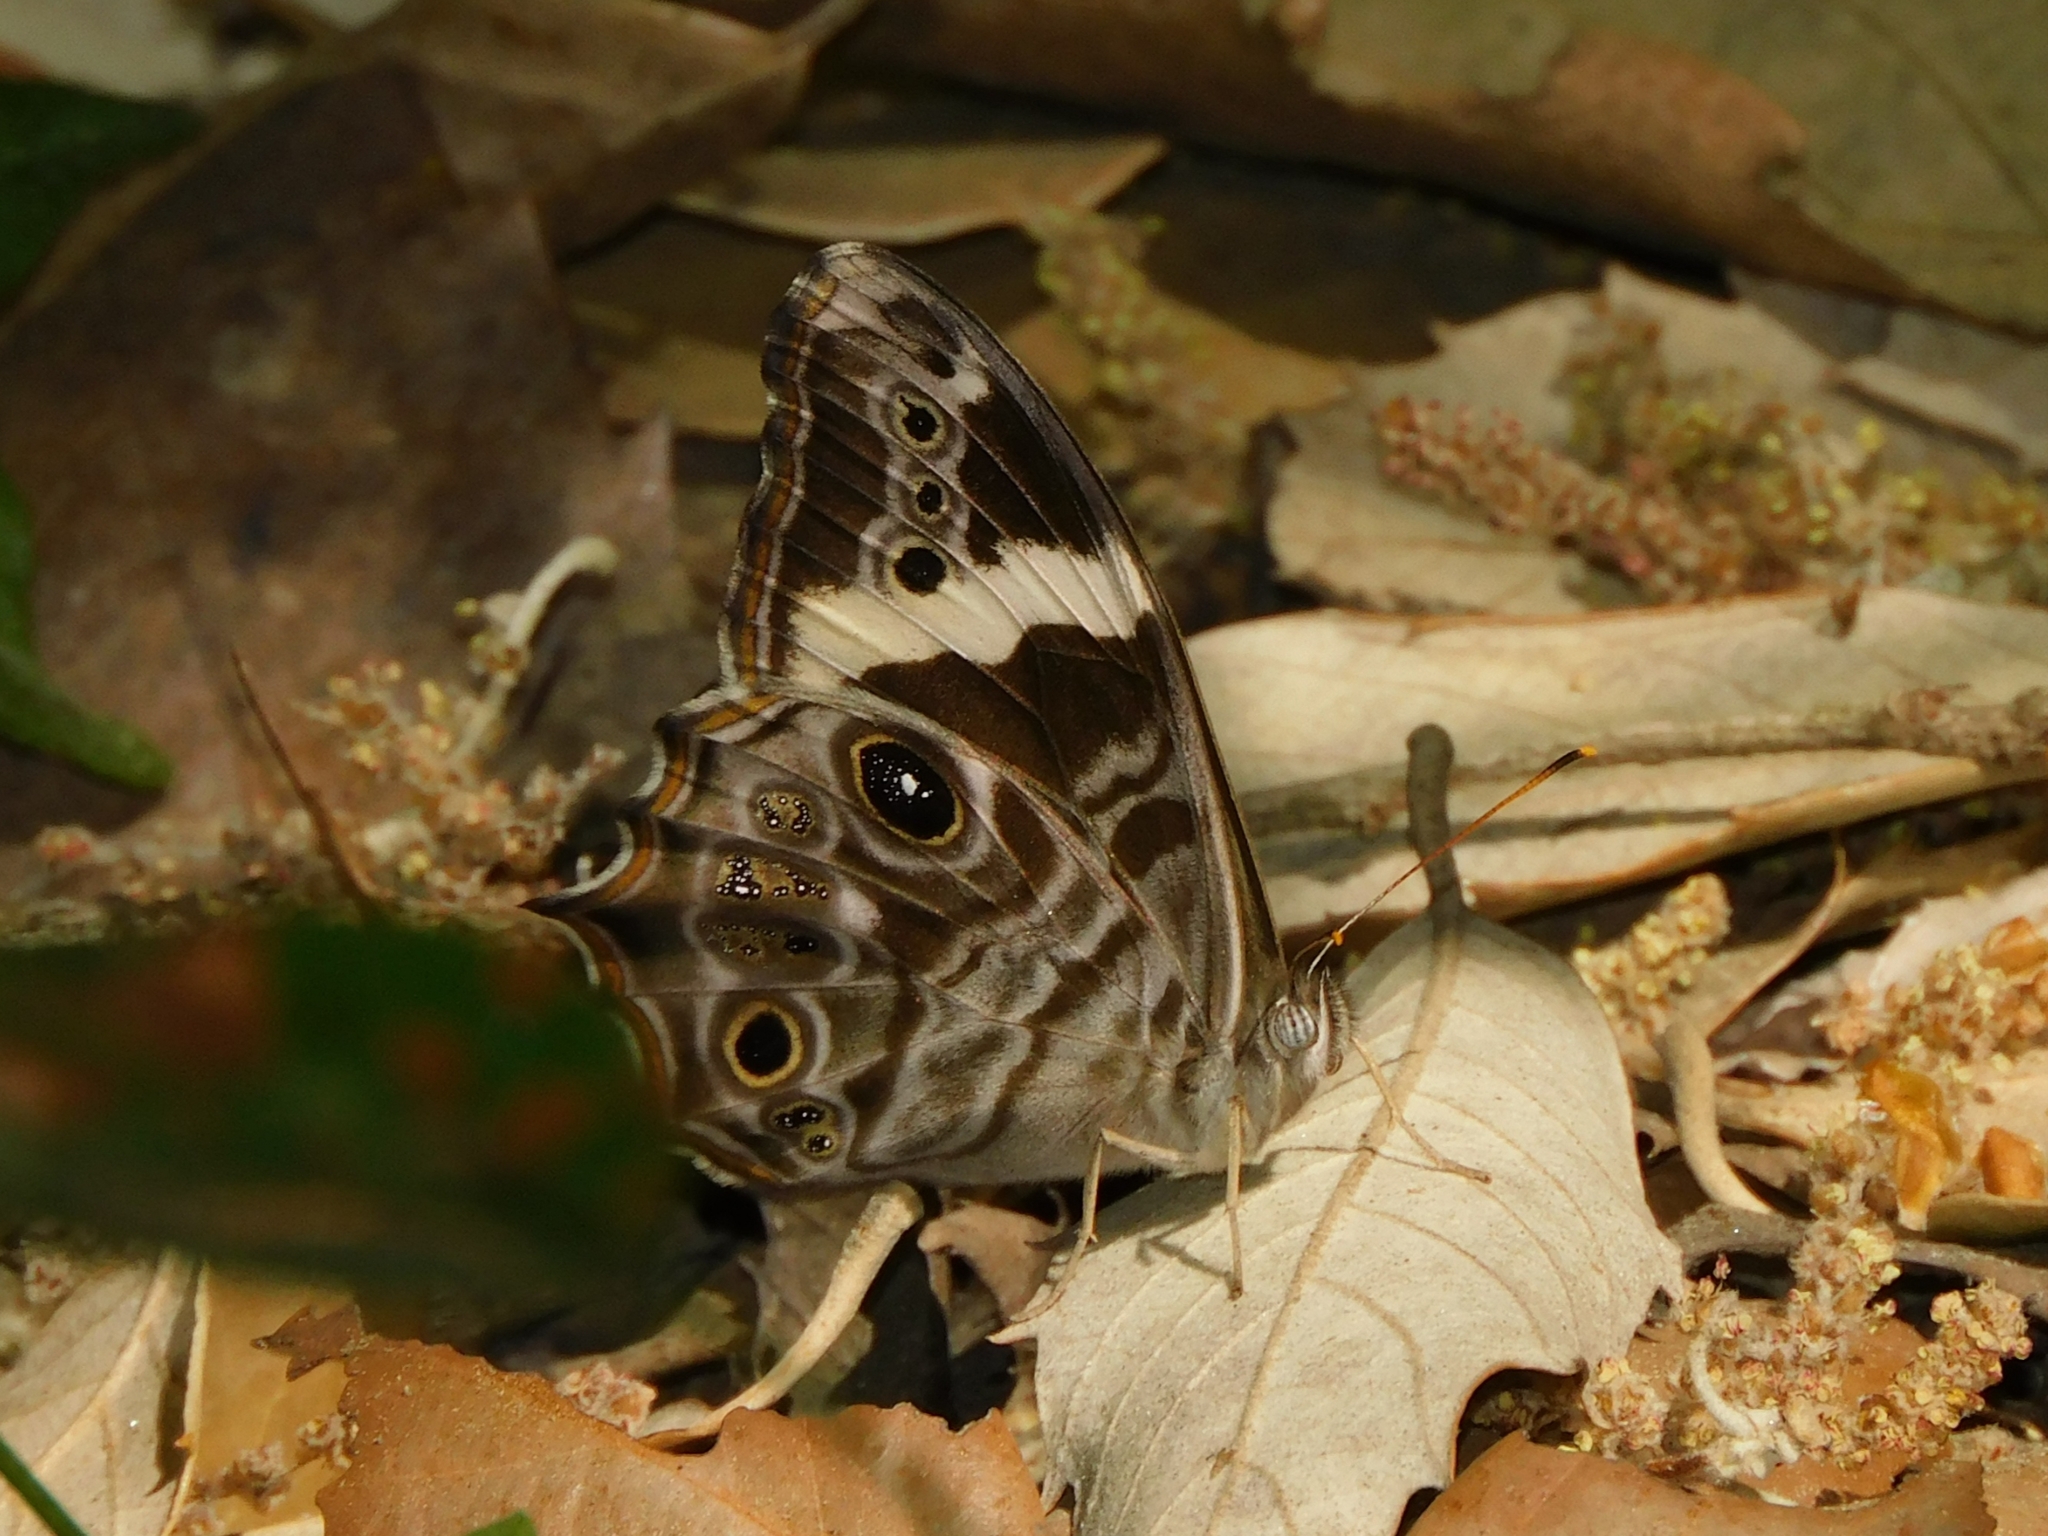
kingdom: Animalia
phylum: Arthropoda
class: Insecta
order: Lepidoptera
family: Nymphalidae
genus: Lethe
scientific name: Lethe rohria
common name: Common treebrown
